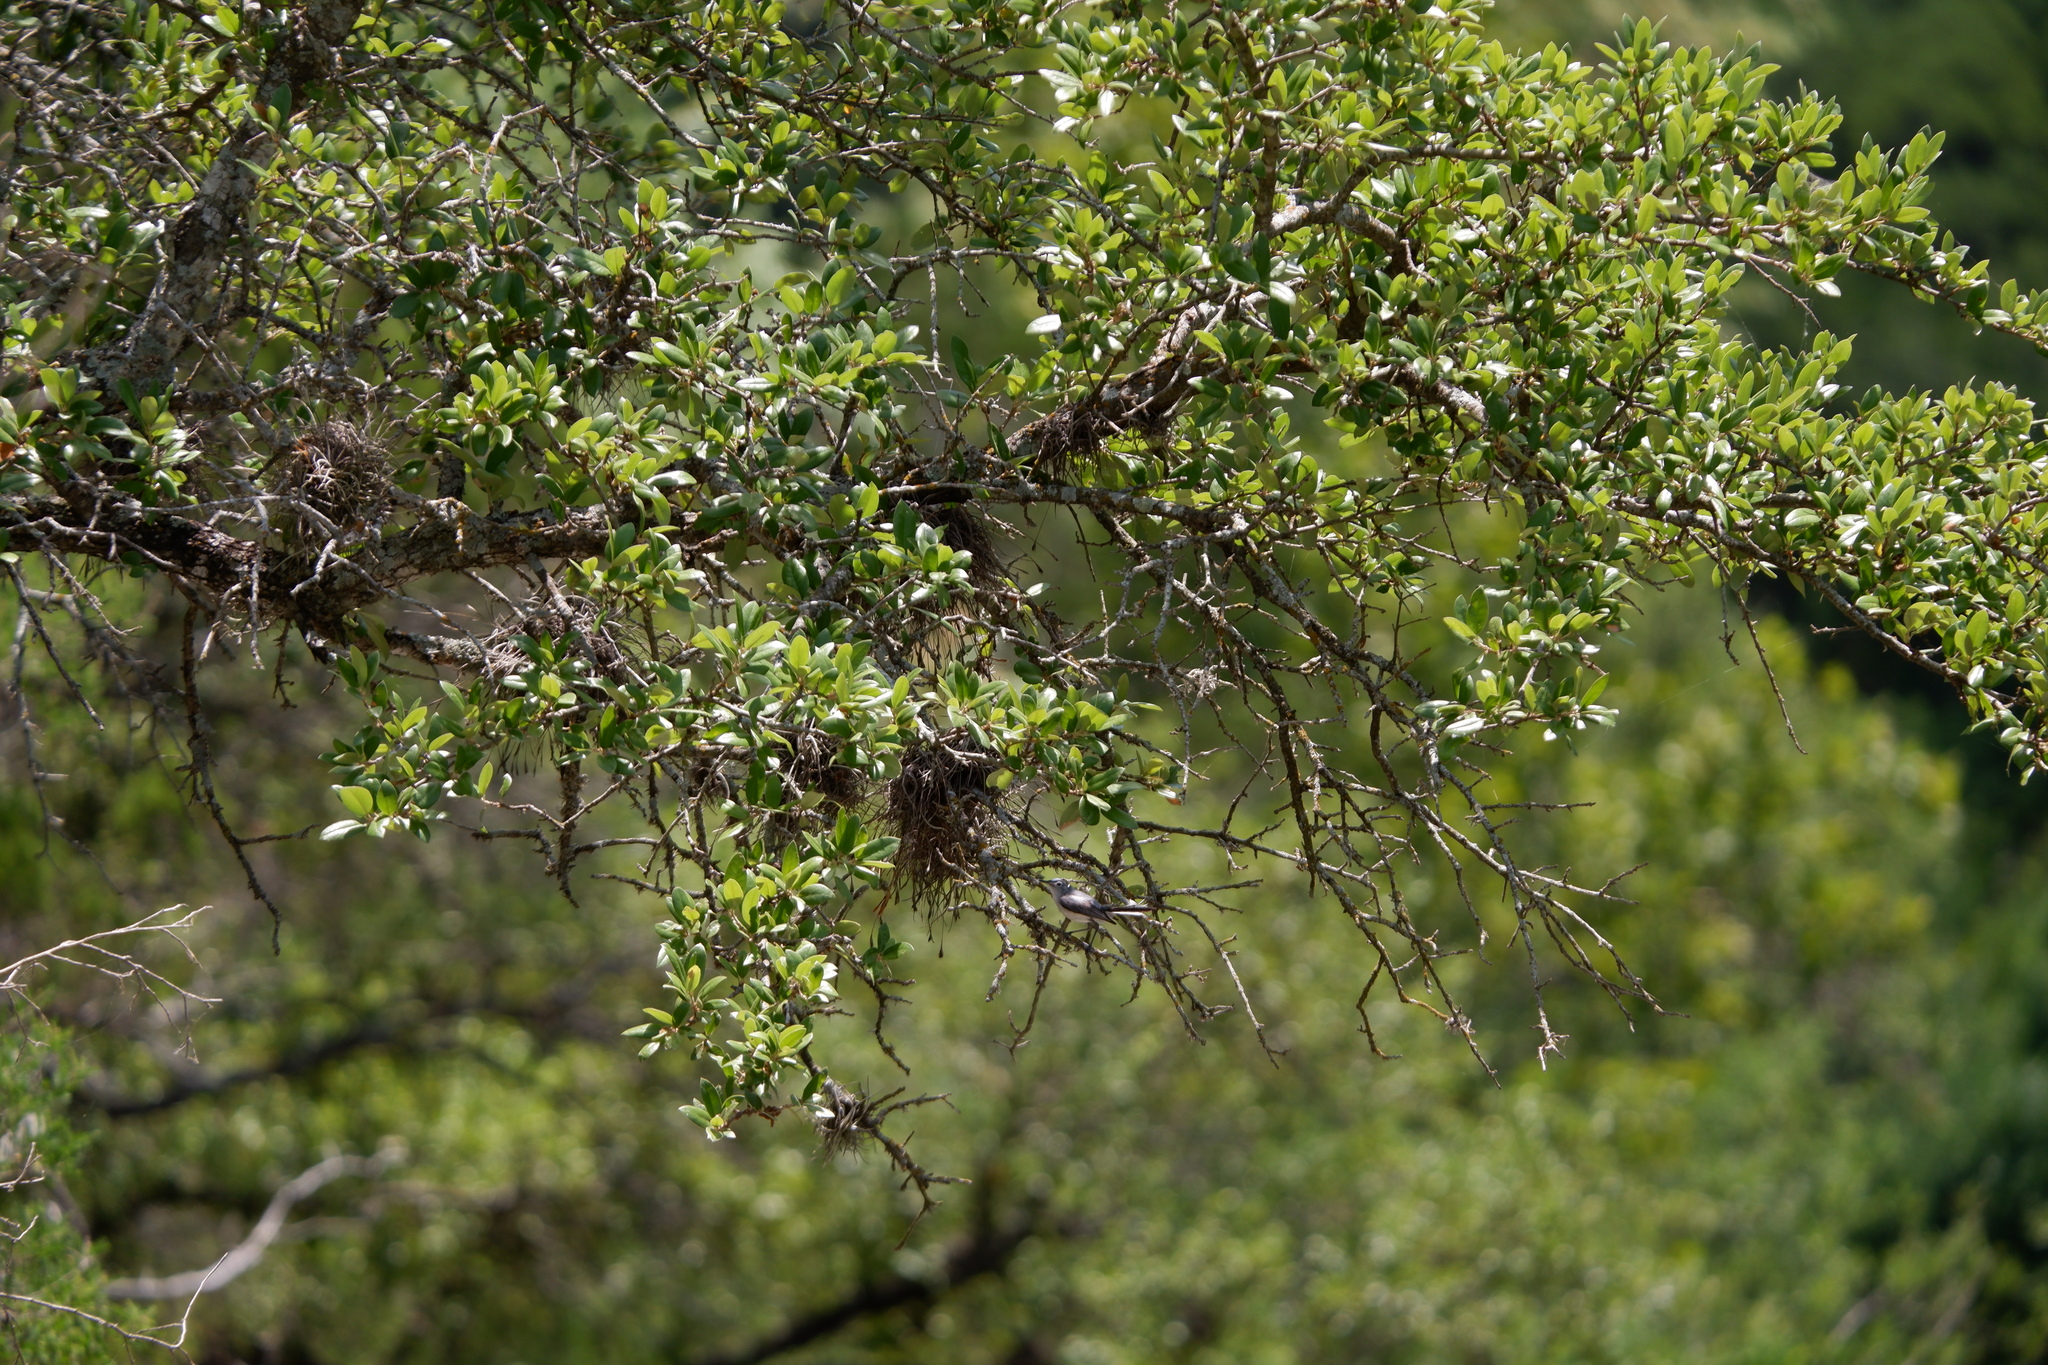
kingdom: Animalia
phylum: Chordata
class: Aves
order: Passeriformes
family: Polioptilidae
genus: Polioptila
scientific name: Polioptila caerulea
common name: Blue-gray gnatcatcher
